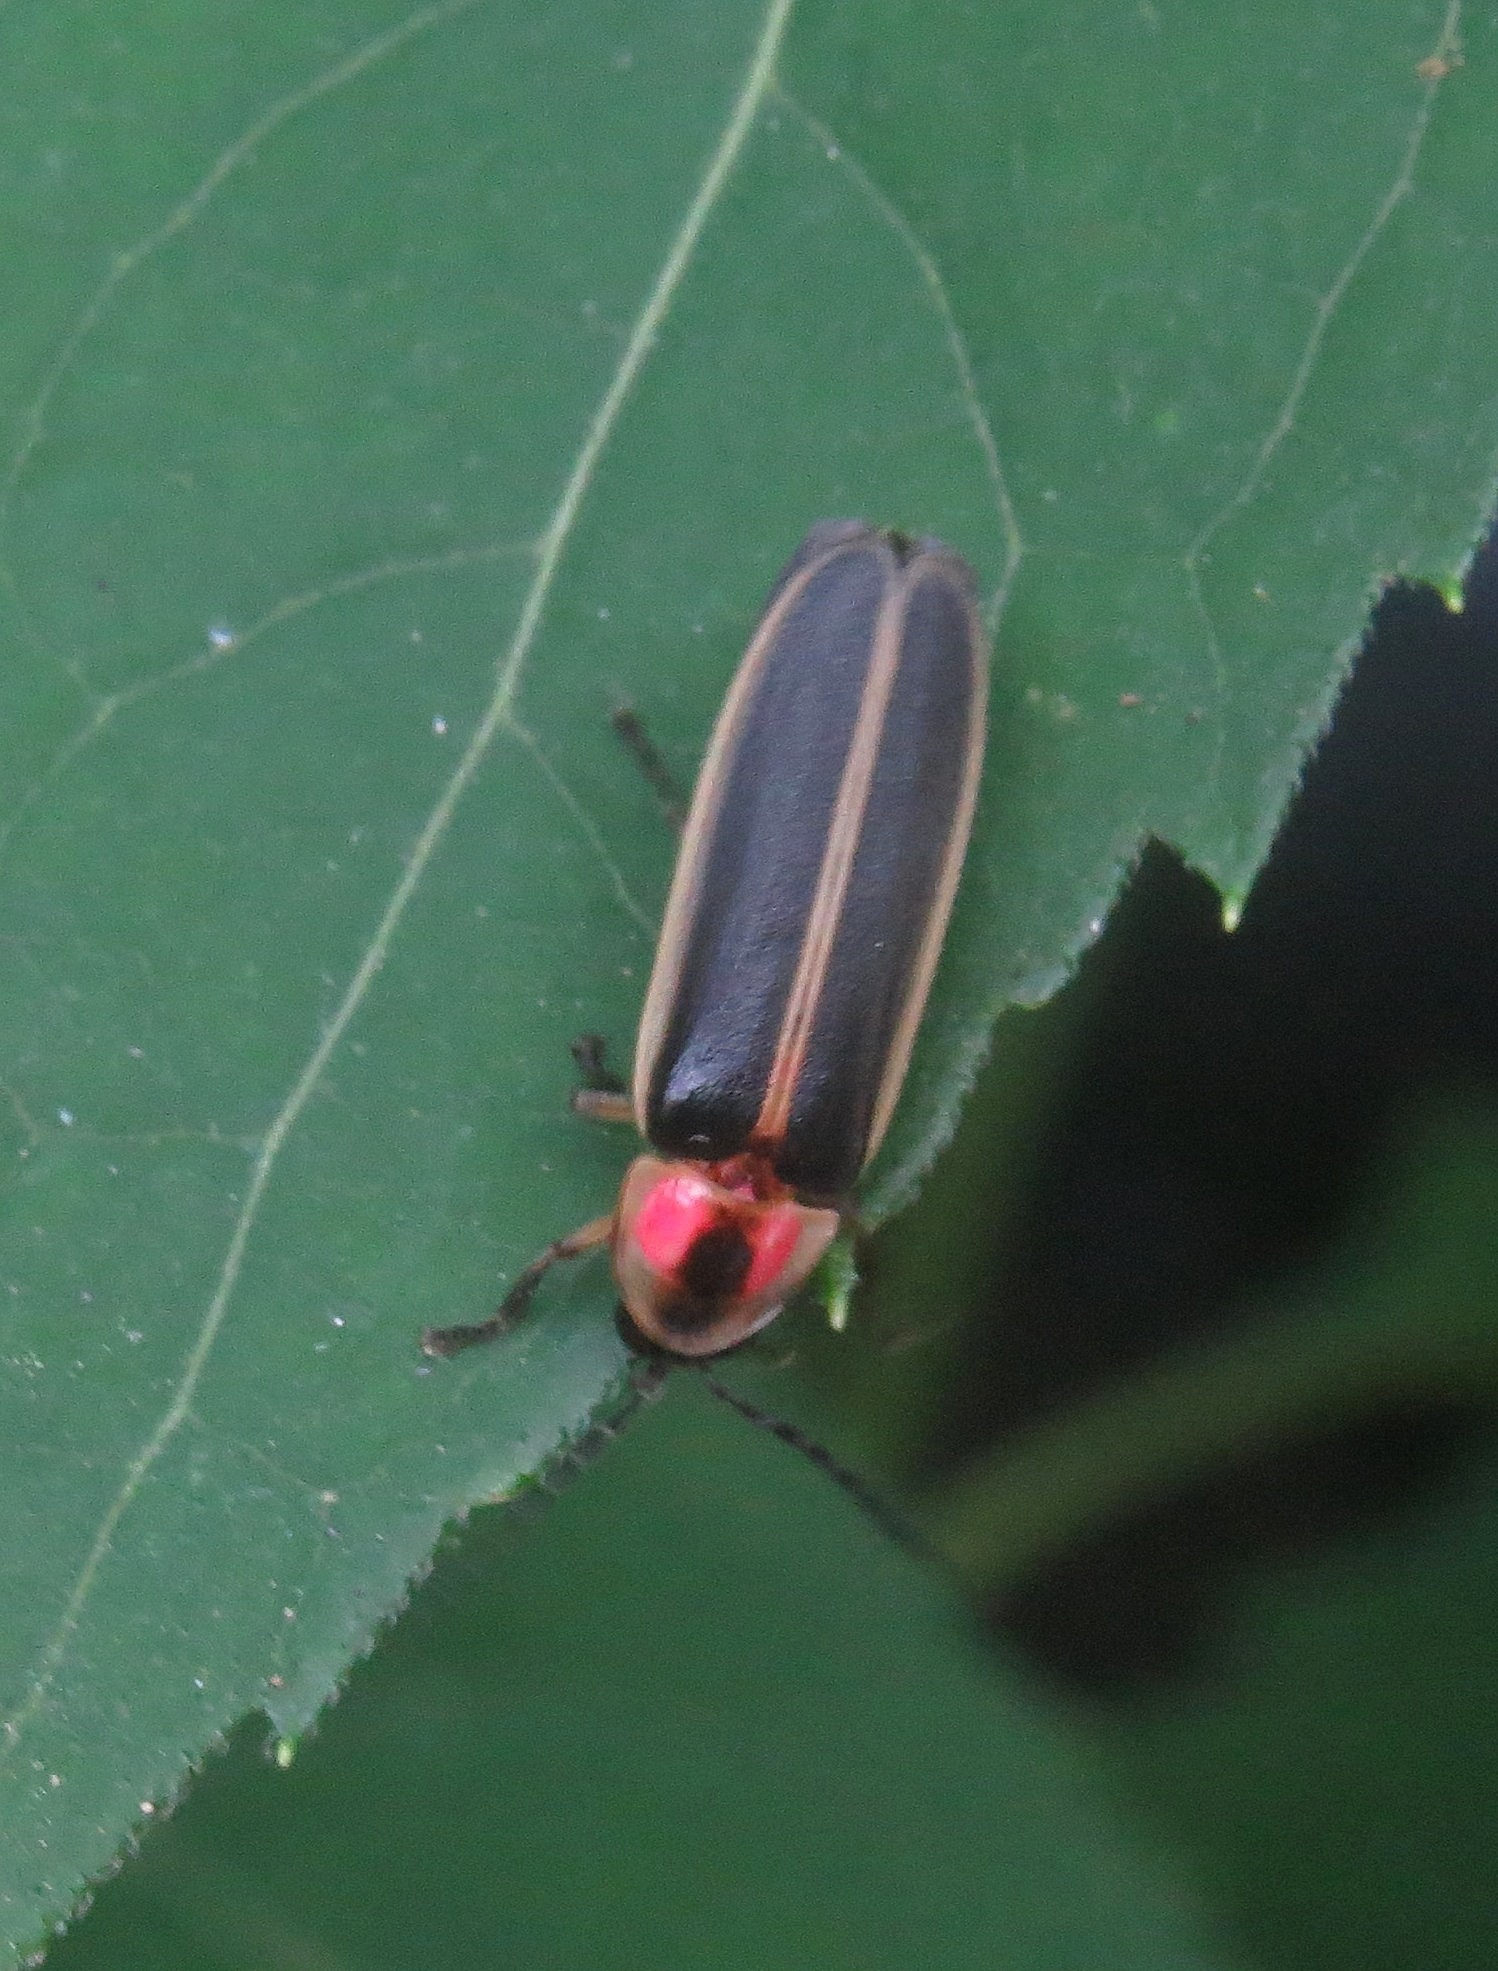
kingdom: Animalia
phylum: Arthropoda
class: Insecta
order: Coleoptera
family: Lampyridae
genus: Photinus
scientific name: Photinus pyralis
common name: Big dipper firefly
